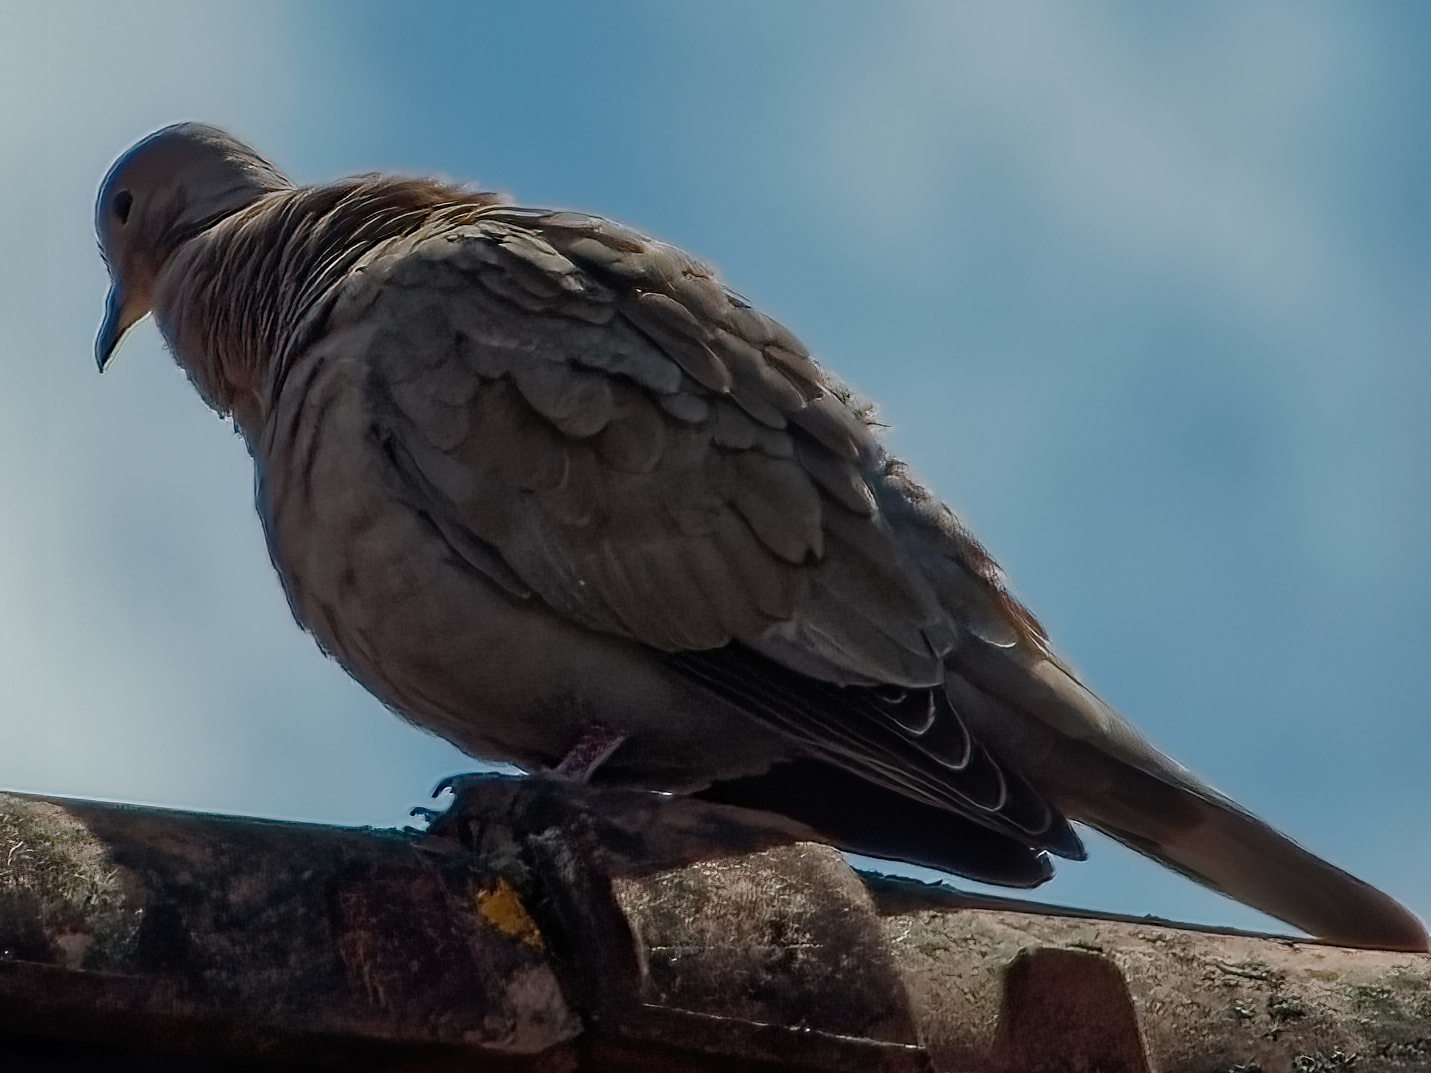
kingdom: Animalia
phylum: Chordata
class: Aves
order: Columbiformes
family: Columbidae
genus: Streptopelia
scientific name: Streptopelia decaocto
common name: Eurasian collared dove
